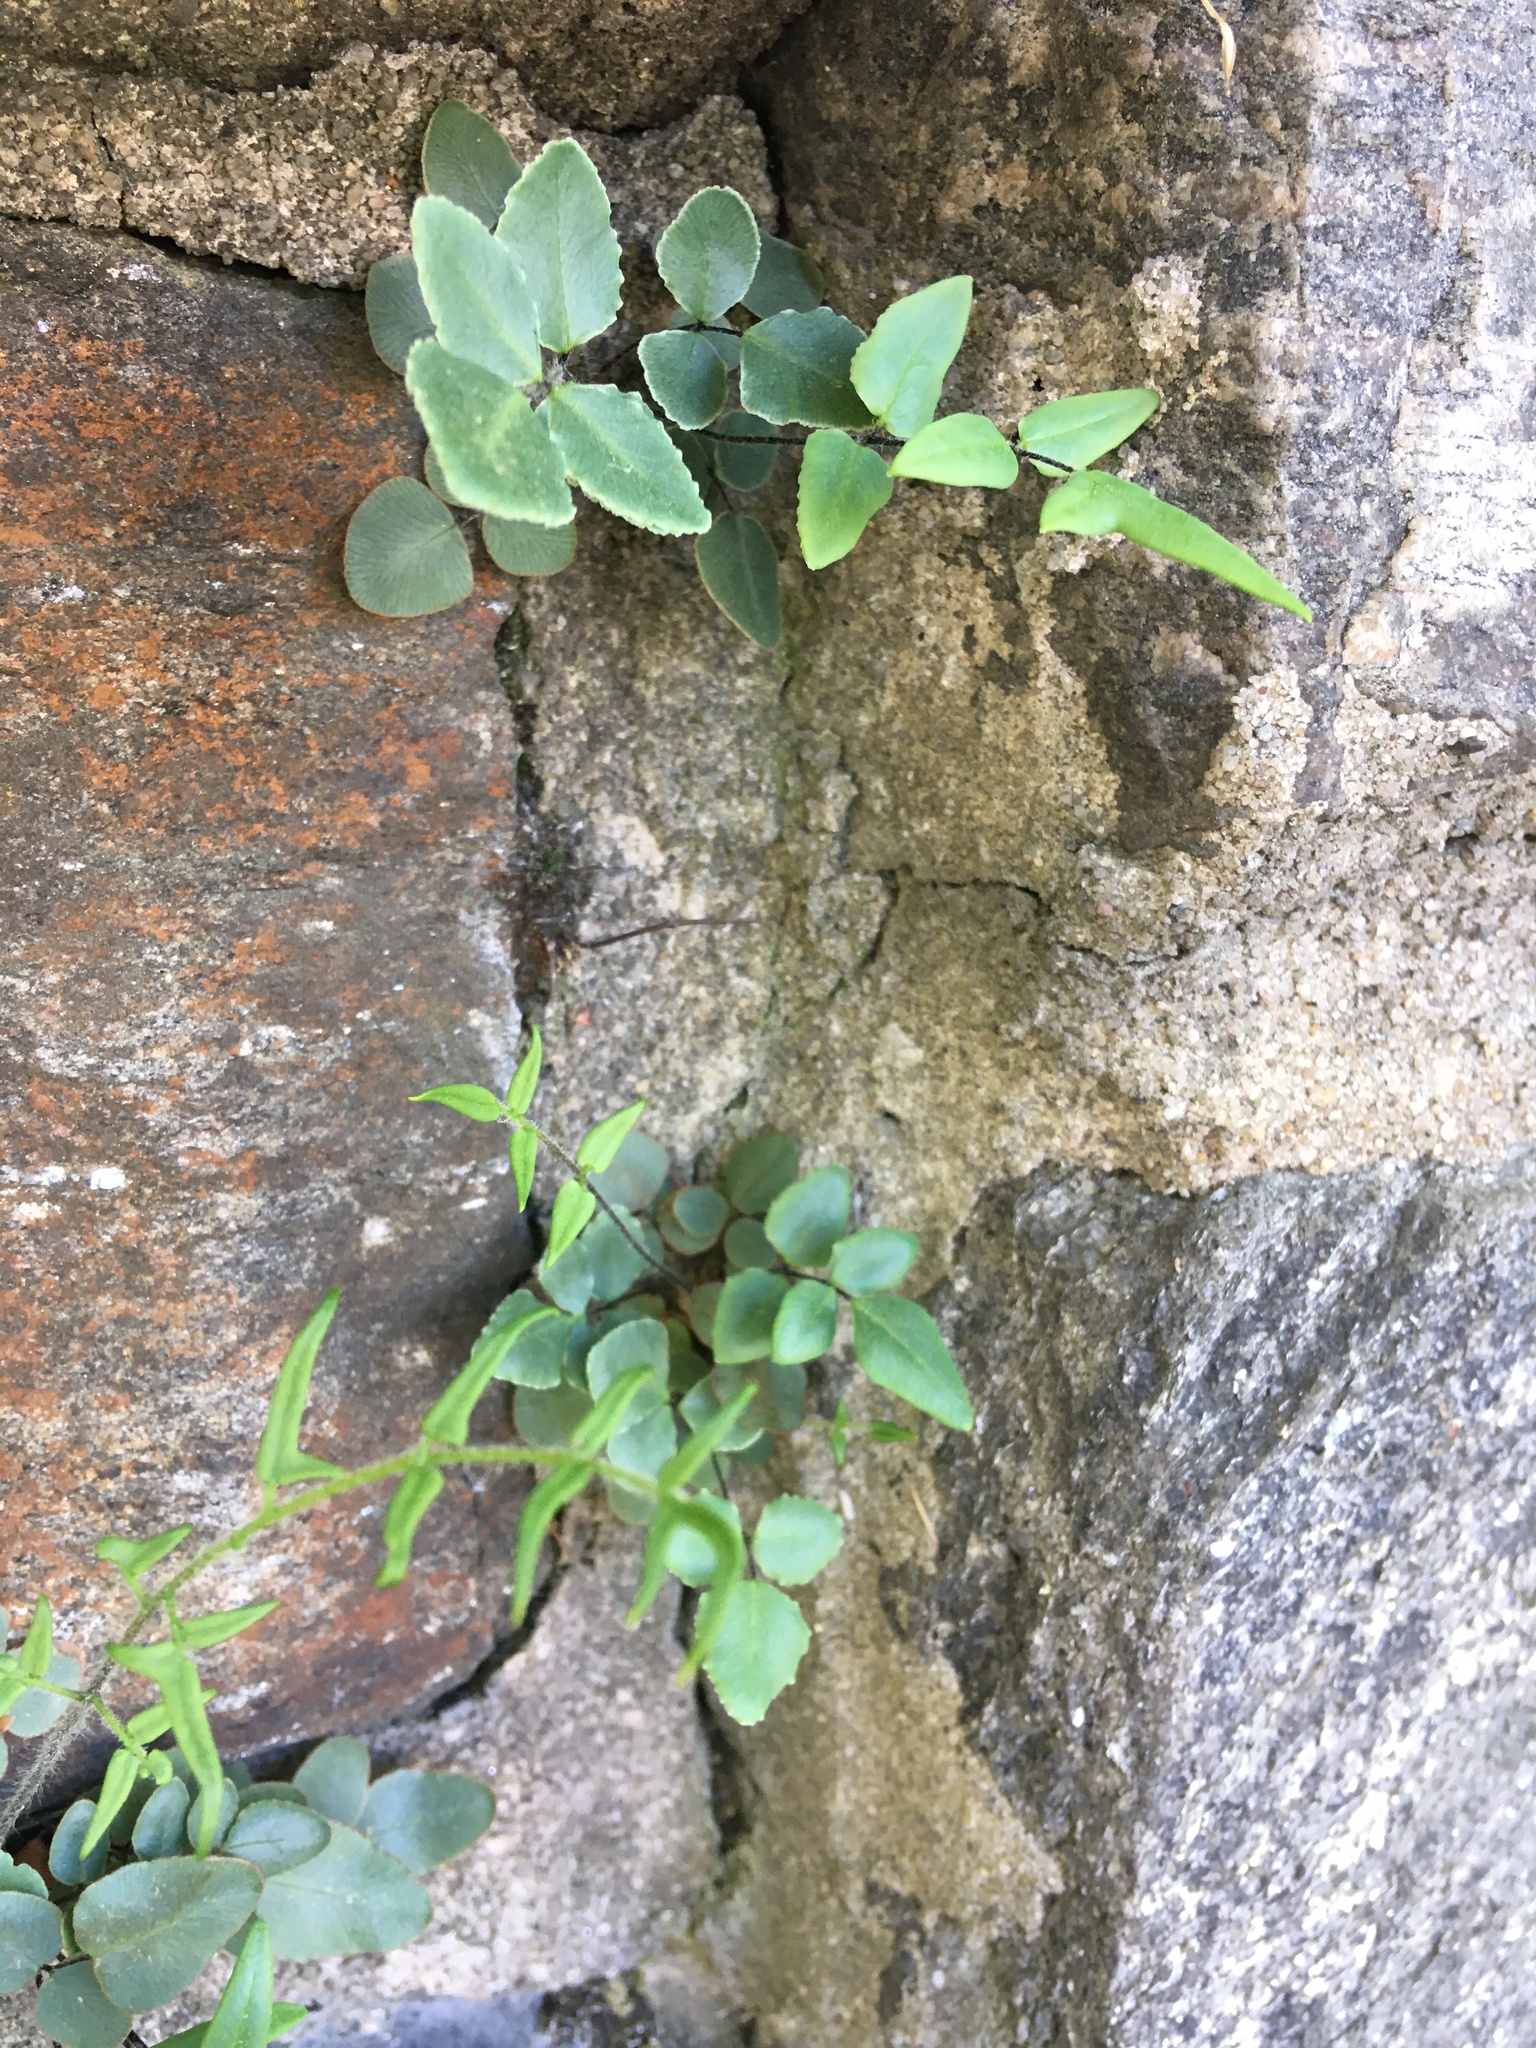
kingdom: Plantae
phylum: Tracheophyta
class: Polypodiopsida
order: Polypodiales
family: Pteridaceae
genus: Pellaea
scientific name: Pellaea atropurpurea
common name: Hairy cliffbrake
